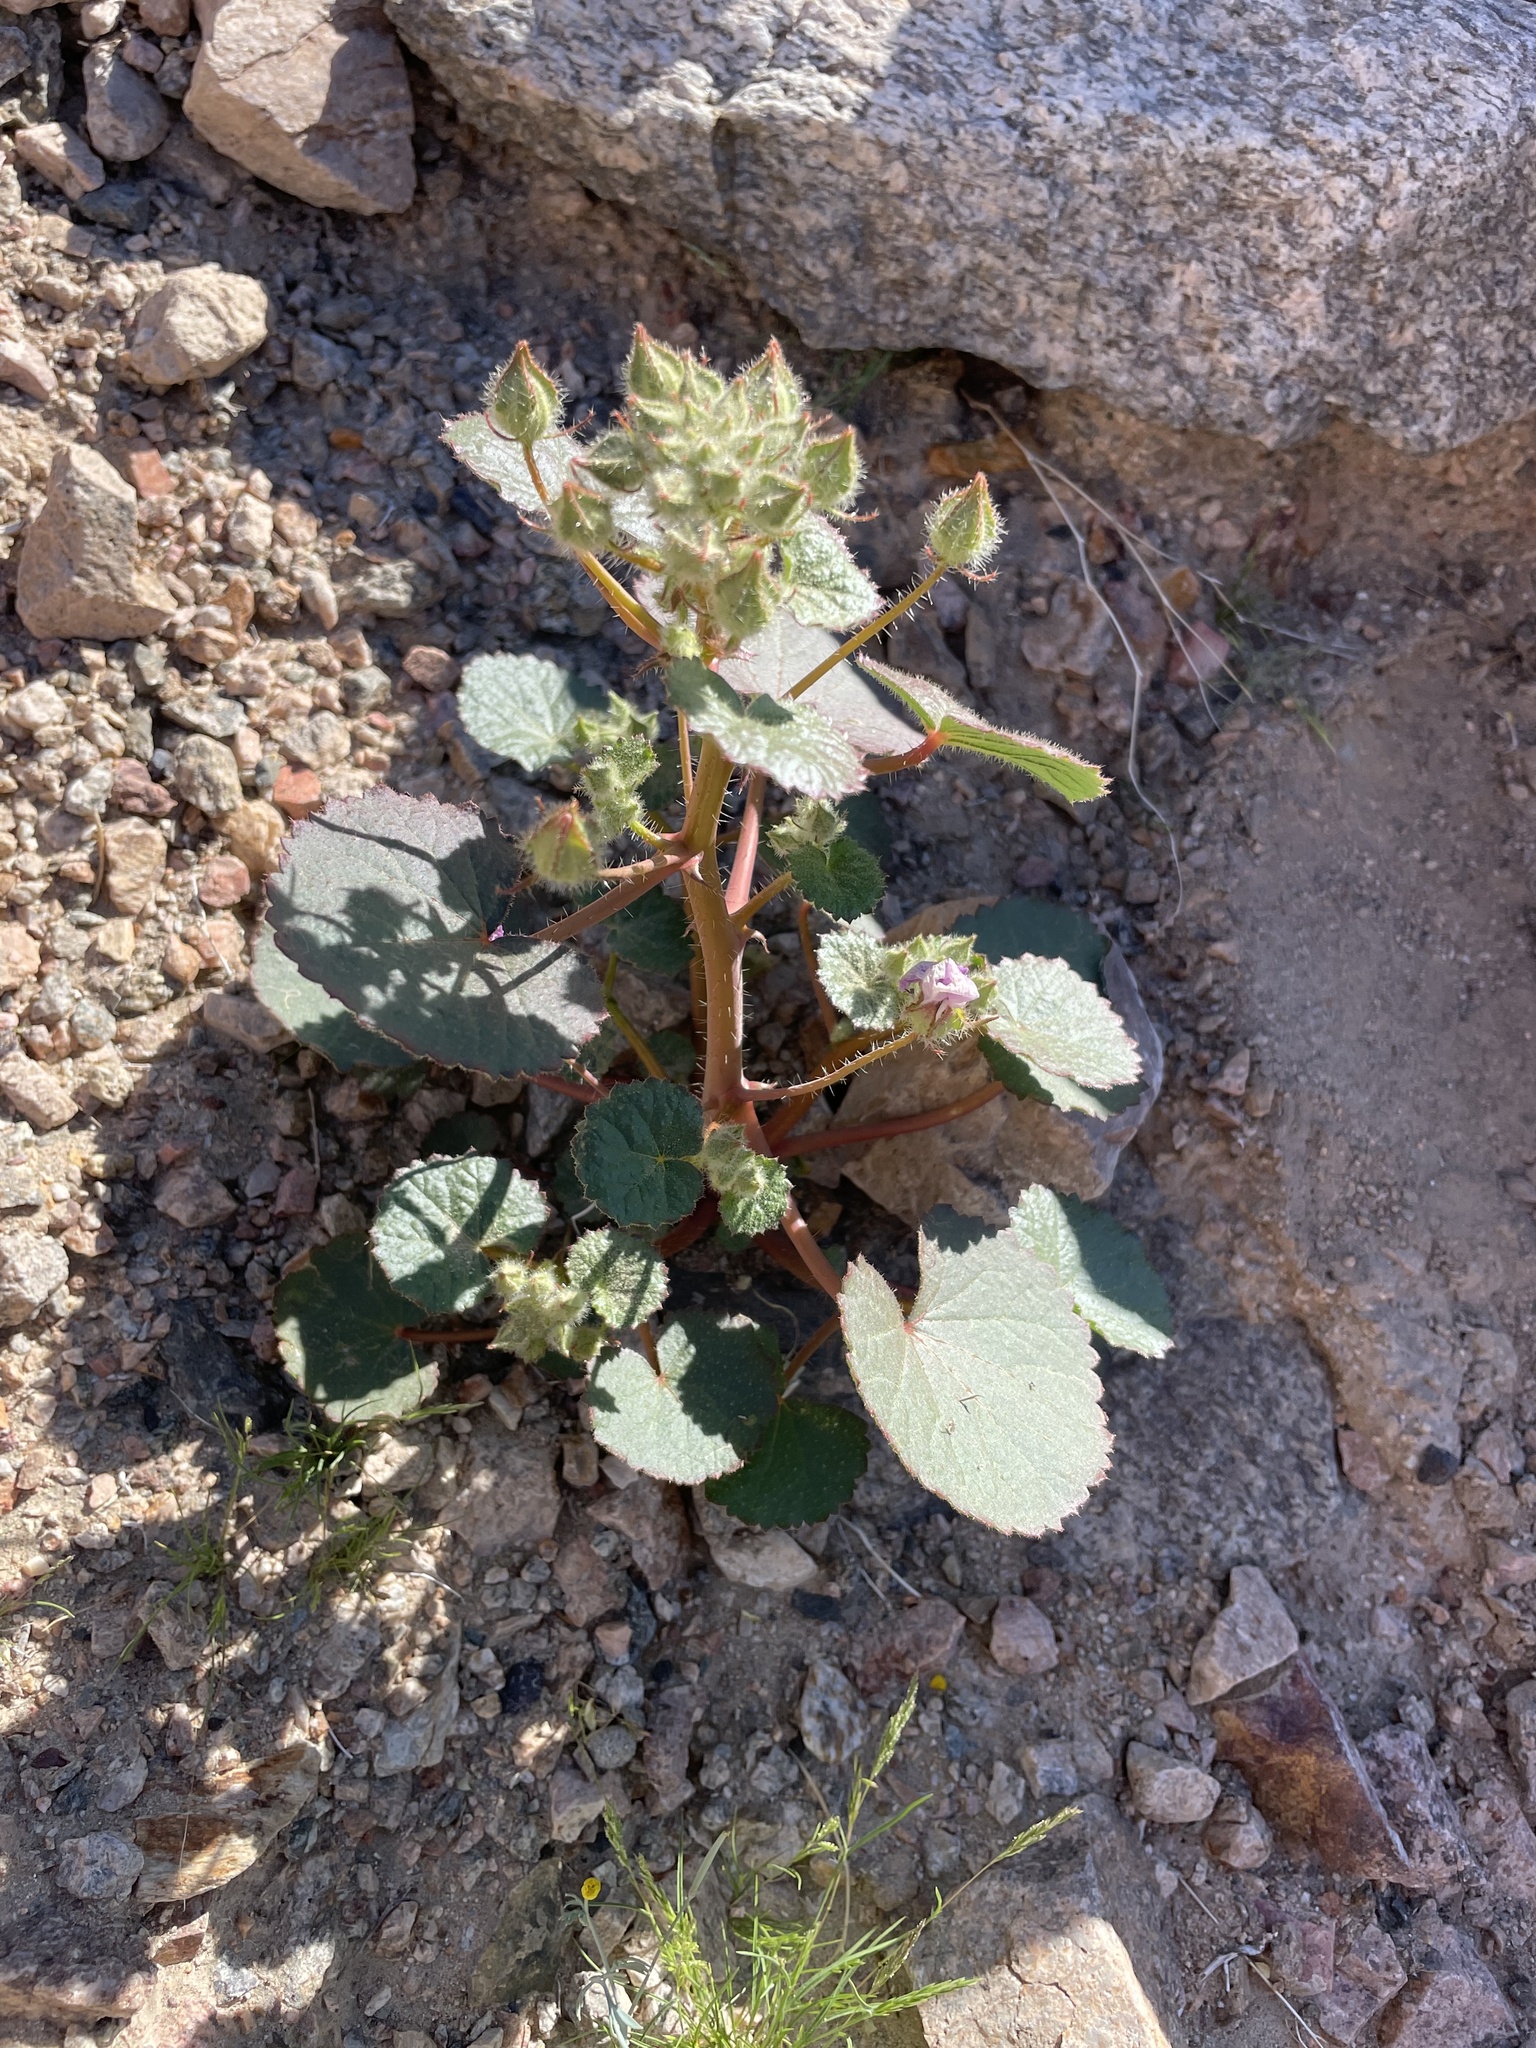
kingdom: Plantae
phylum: Tracheophyta
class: Magnoliopsida
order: Malvales
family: Malvaceae
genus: Eremalche
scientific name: Eremalche rotundifolia
